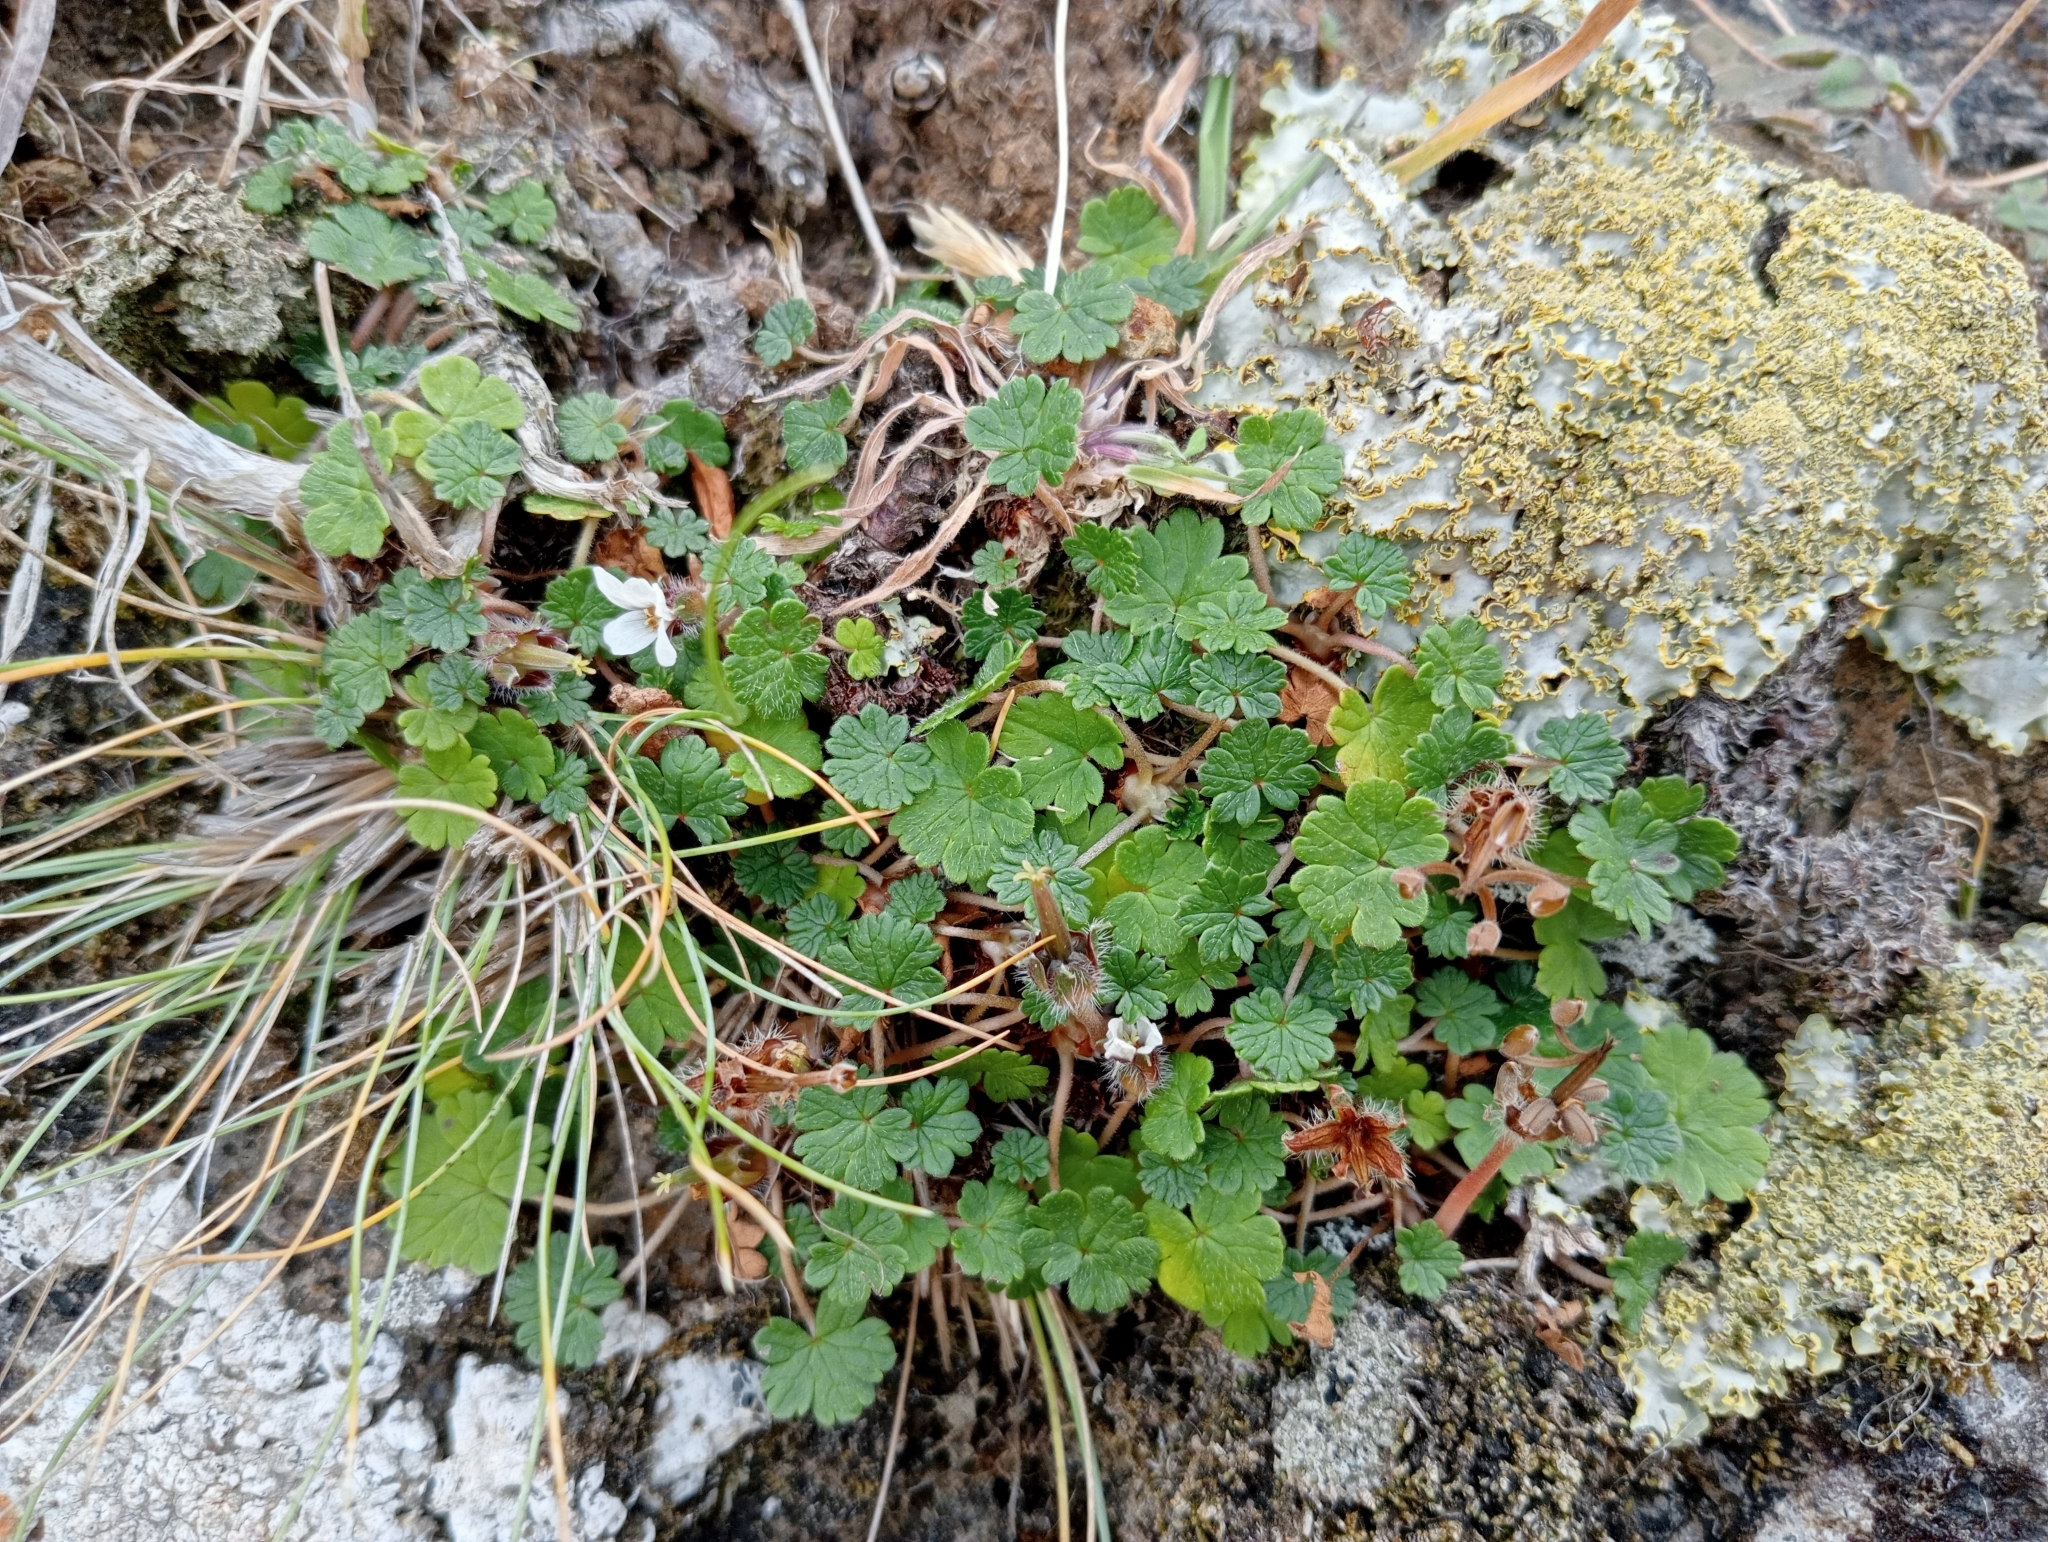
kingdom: Plantae
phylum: Tracheophyta
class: Magnoliopsida
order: Geraniales
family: Geraniaceae
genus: Geranium
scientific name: Geranium brevicaule
